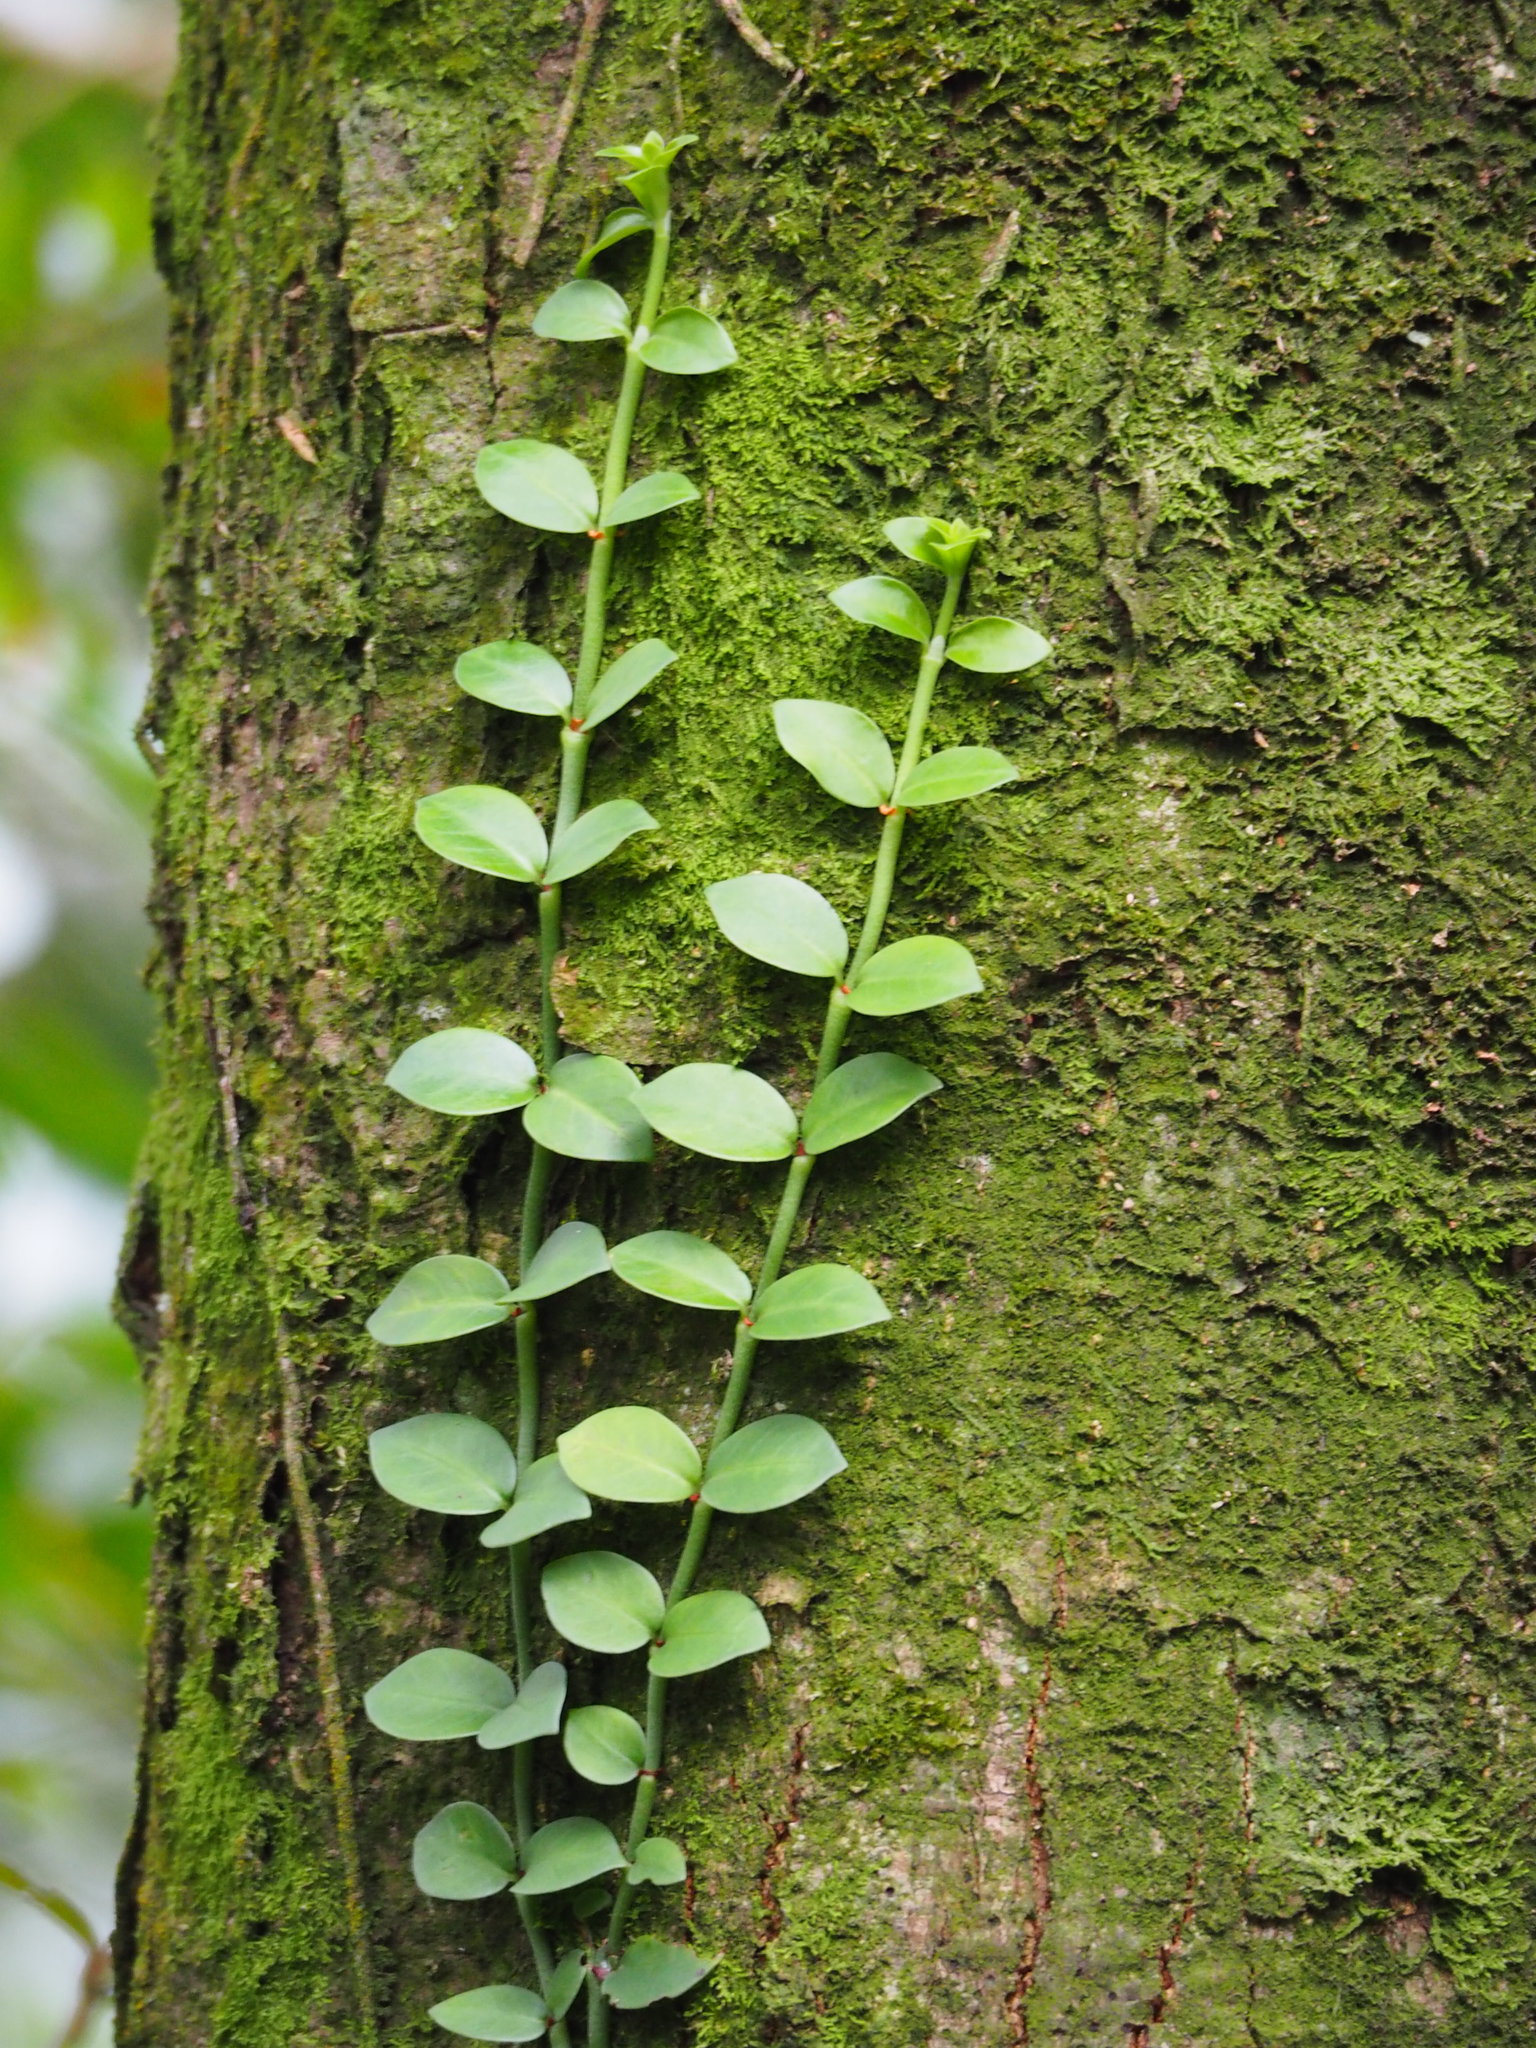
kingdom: Plantae
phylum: Tracheophyta
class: Magnoliopsida
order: Gentianales
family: Rubiaceae
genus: Psychotria
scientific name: Psychotria serpens
